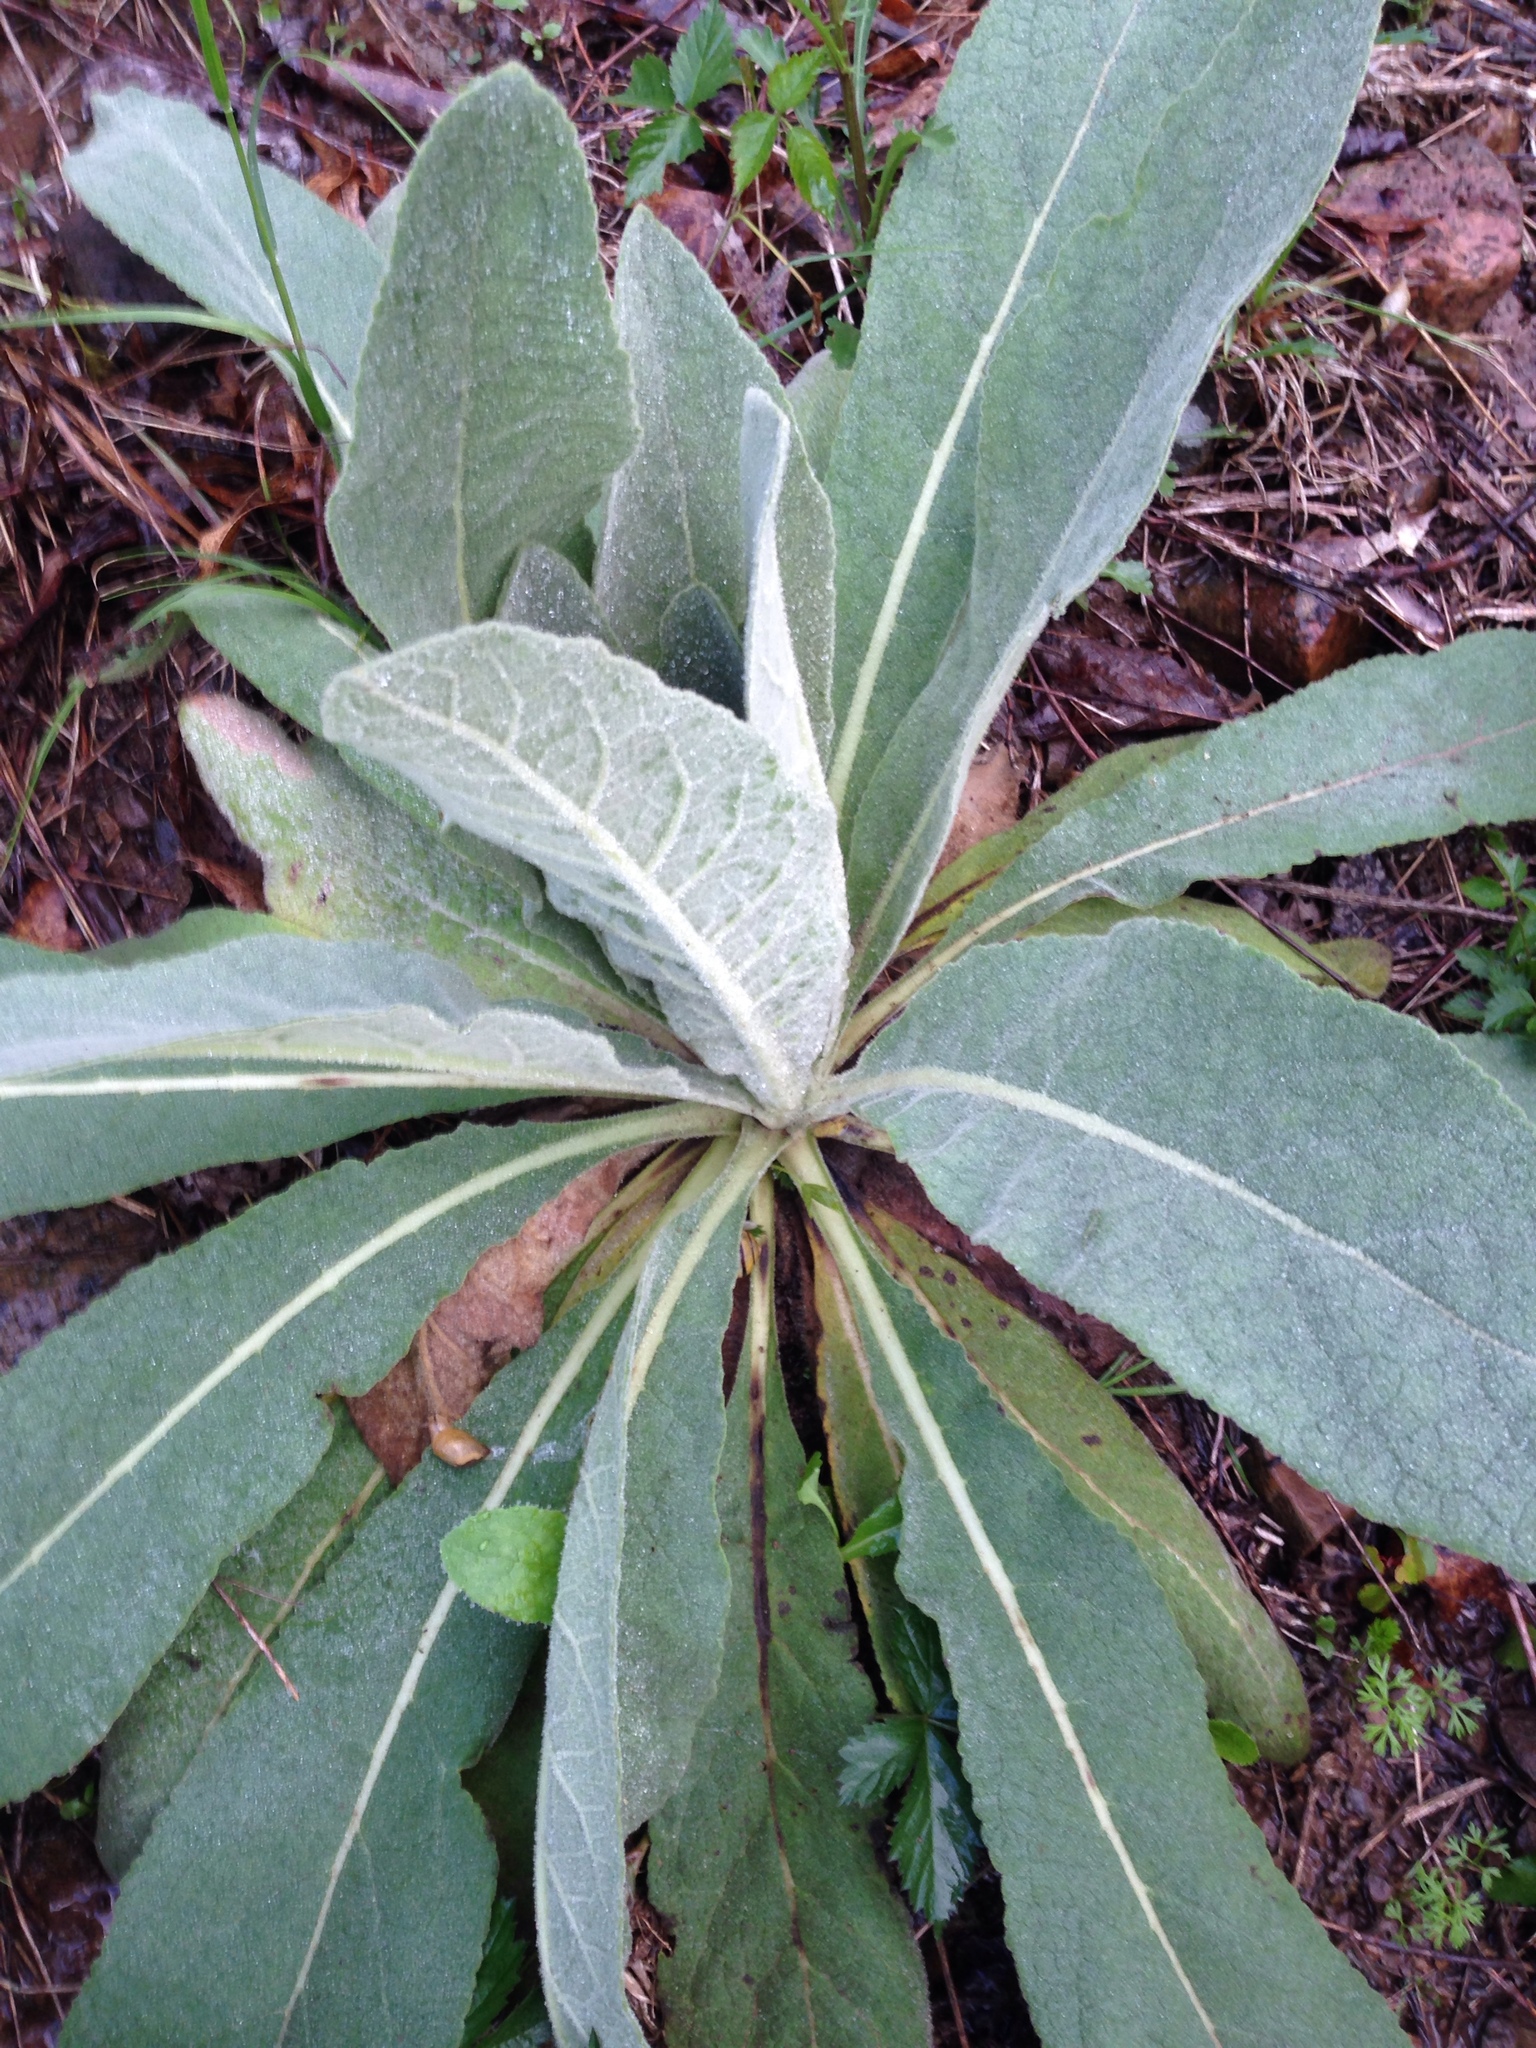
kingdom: Plantae
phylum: Tracheophyta
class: Magnoliopsida
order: Lamiales
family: Scrophulariaceae
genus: Verbascum
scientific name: Verbascum thapsus
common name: Common mullein
